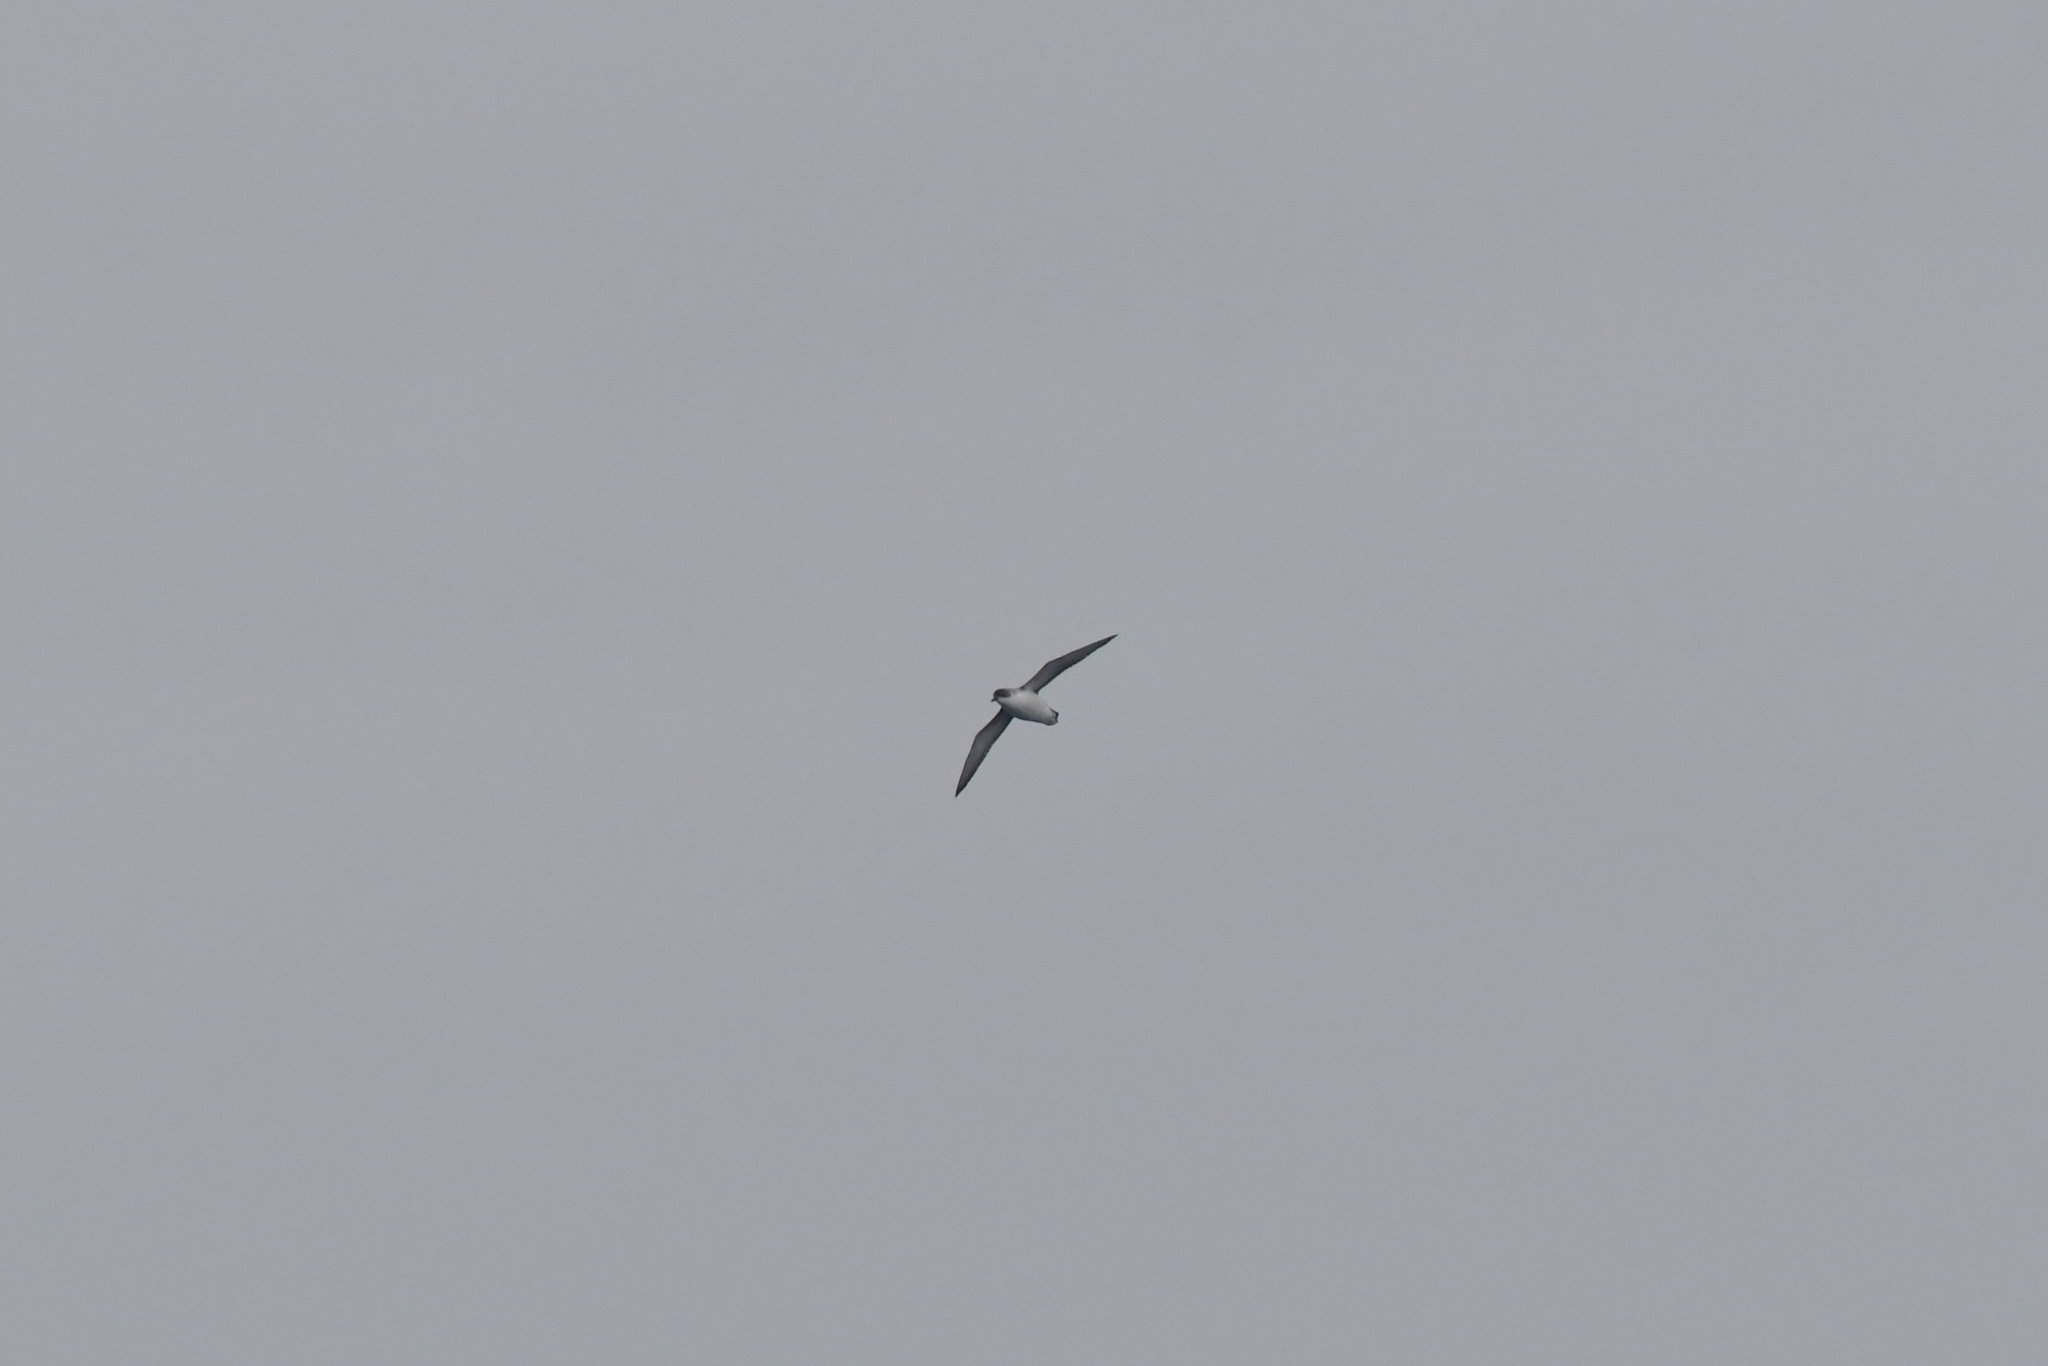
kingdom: Animalia
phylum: Chordata
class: Aves
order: Procellariiformes
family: Procellariidae
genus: Puffinus
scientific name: Puffinus assimilis
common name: Little shearwater
